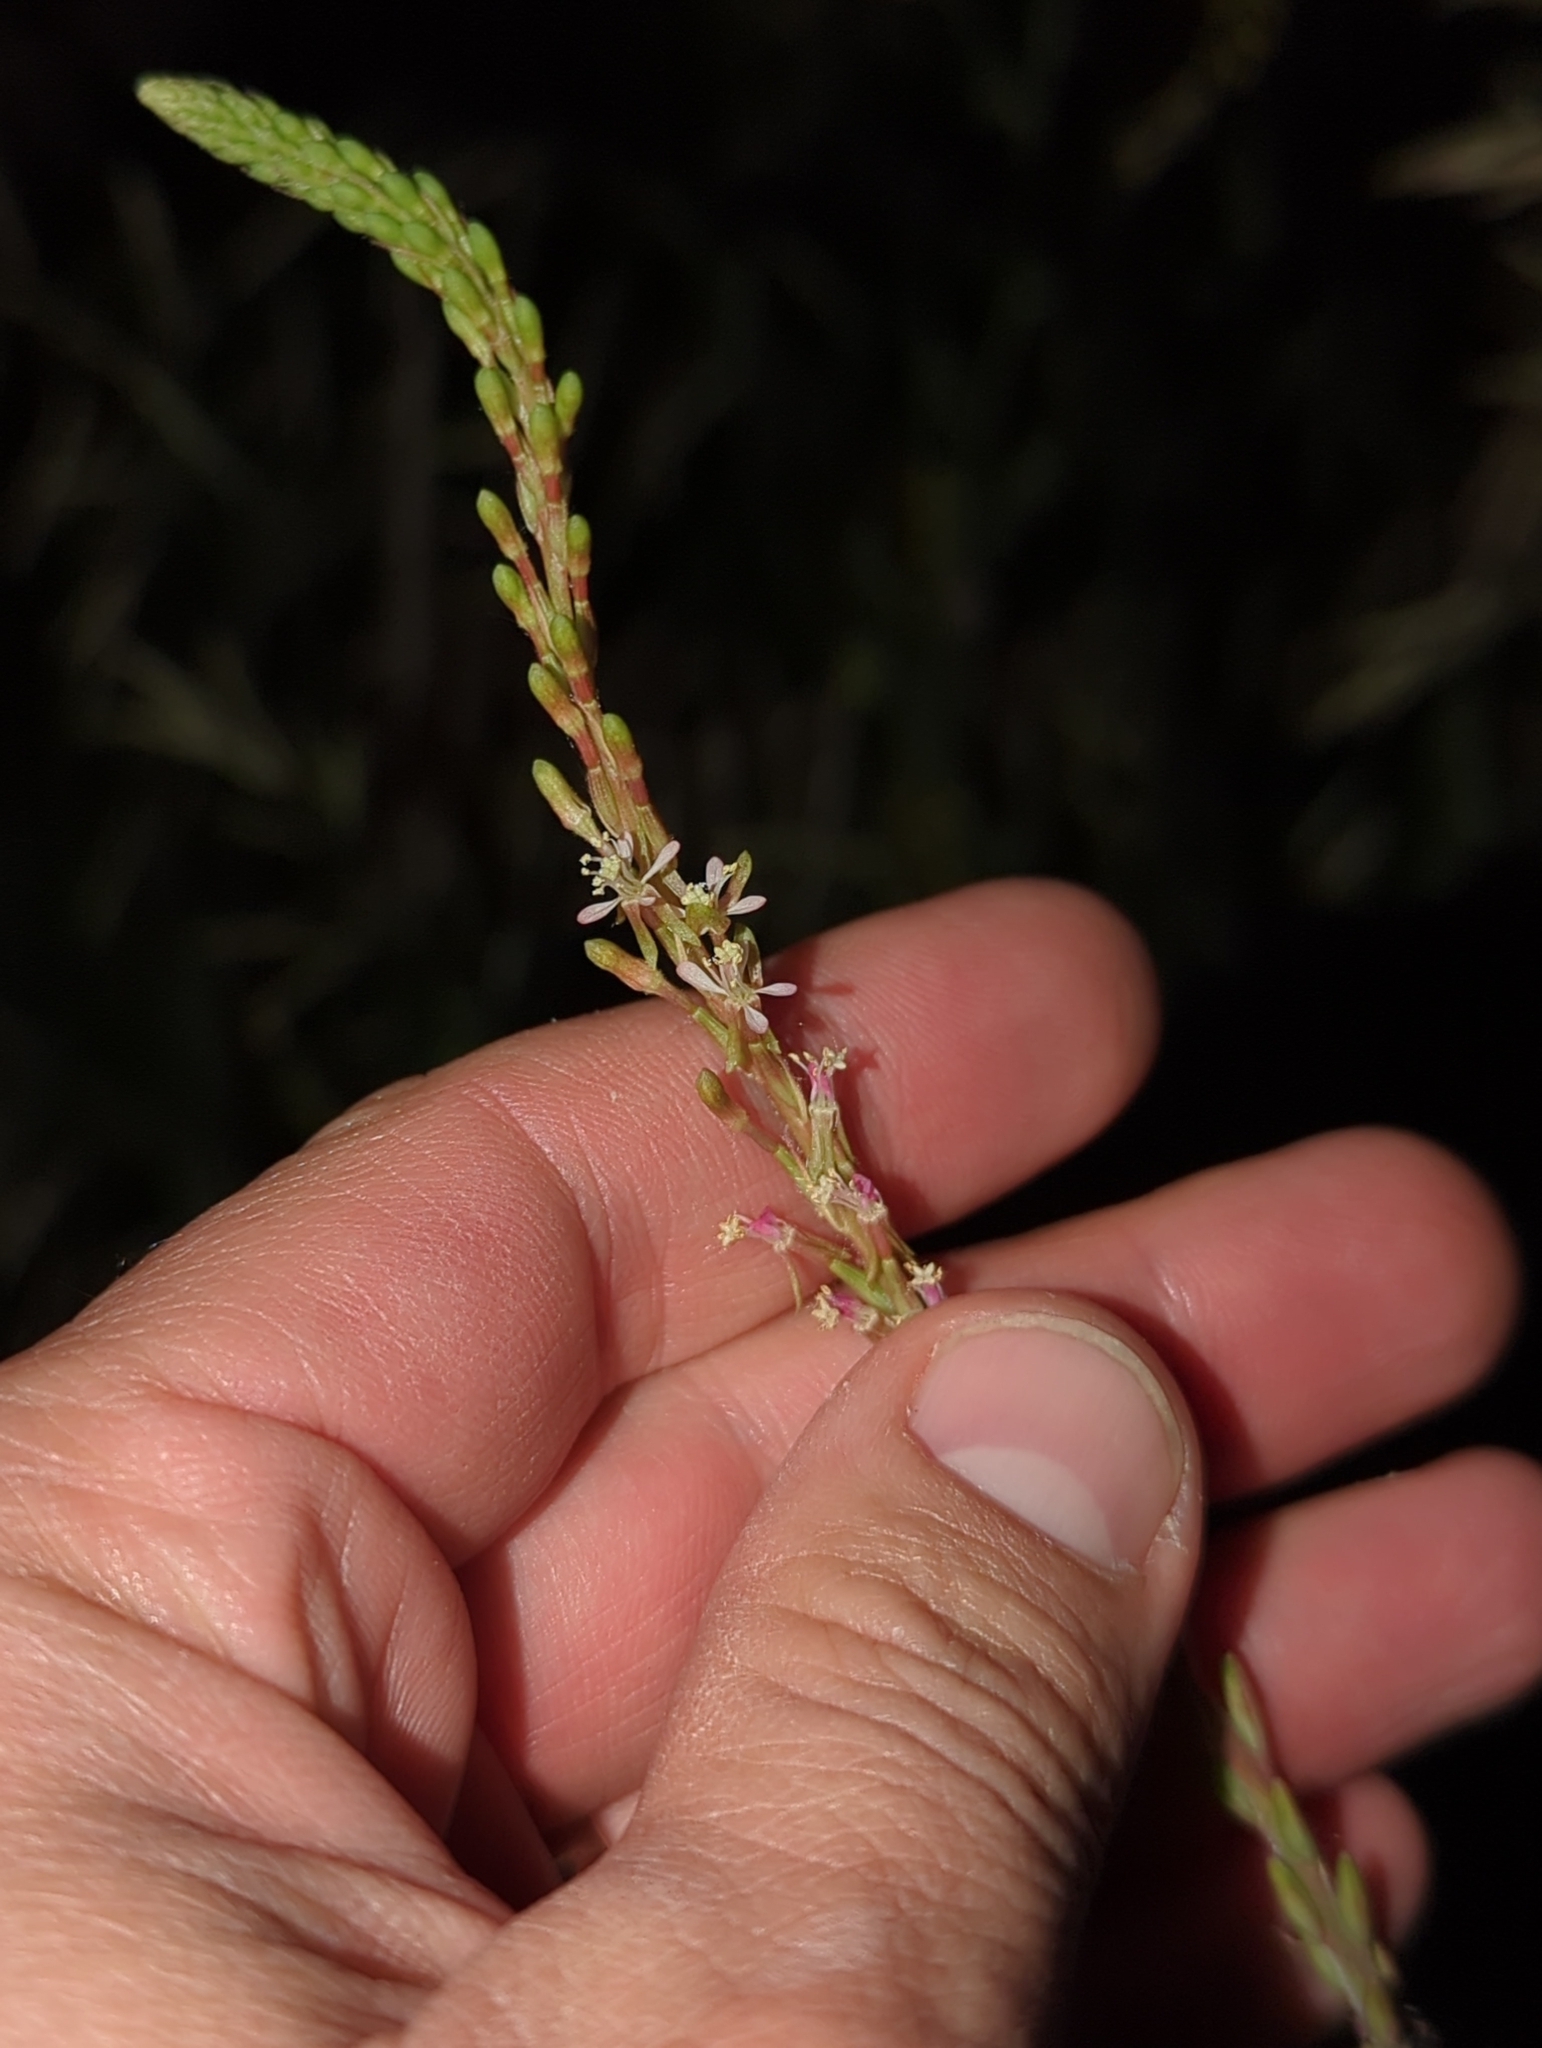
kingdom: Plantae
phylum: Tracheophyta
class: Magnoliopsida
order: Myrtales
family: Onagraceae
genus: Oenothera
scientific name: Oenothera curtiflora
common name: Velvetweed
